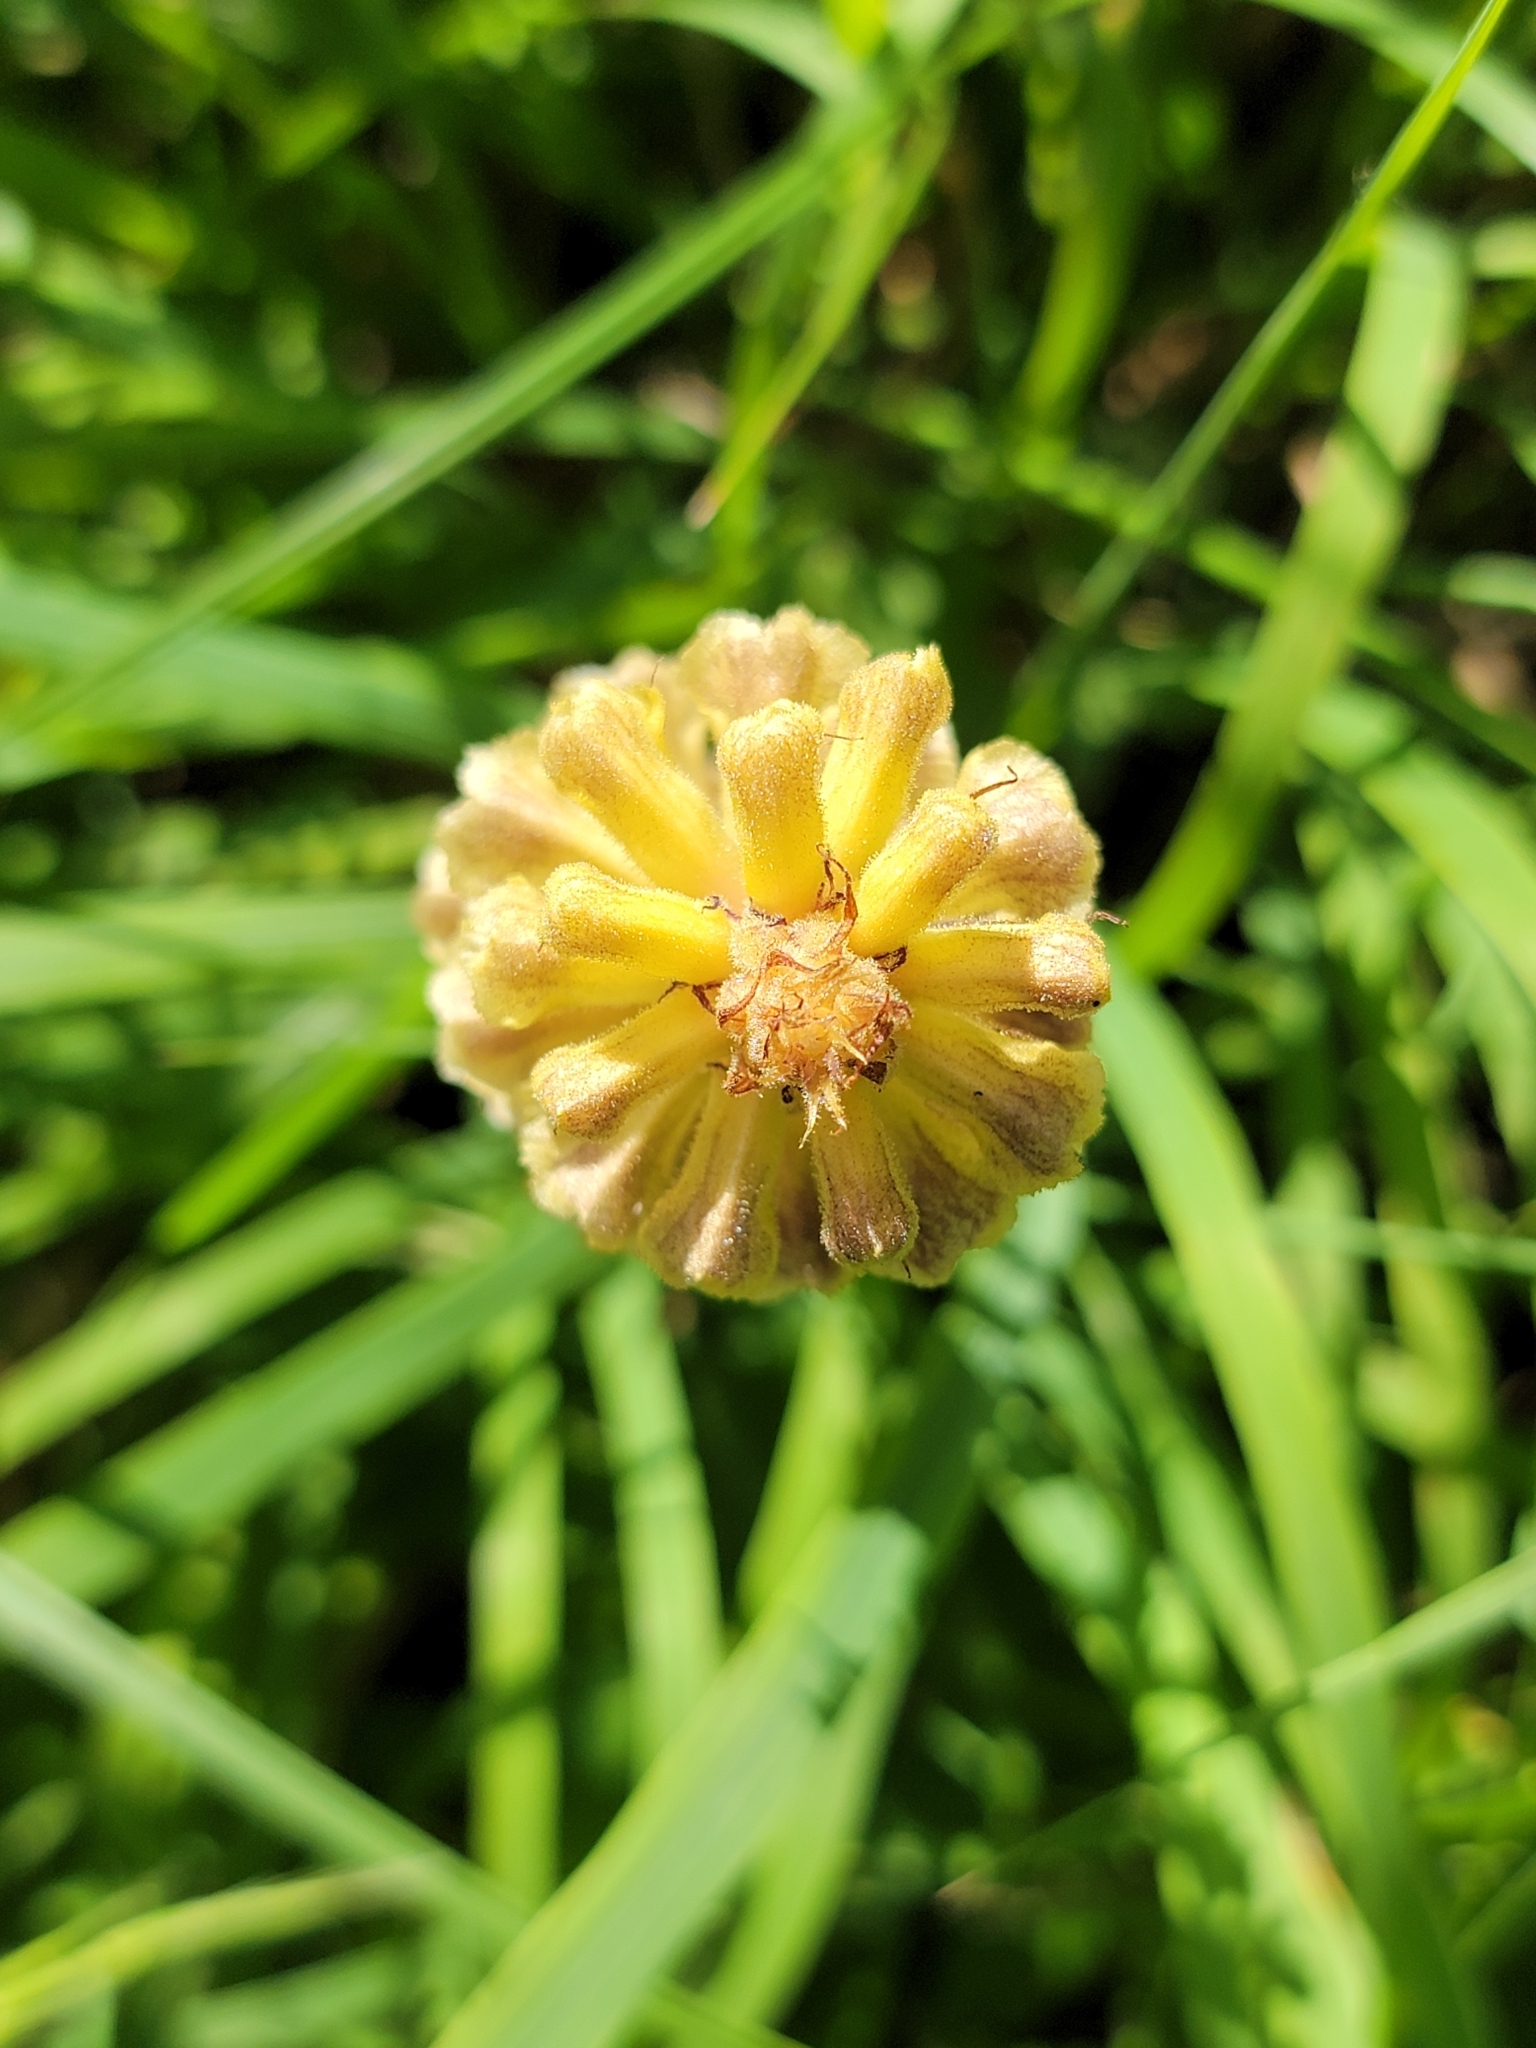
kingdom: Plantae
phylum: Tracheophyta
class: Magnoliopsida
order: Lamiales
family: Orobanchaceae
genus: Orobanche
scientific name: Orobanche reticulata
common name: Thistle broomrape
